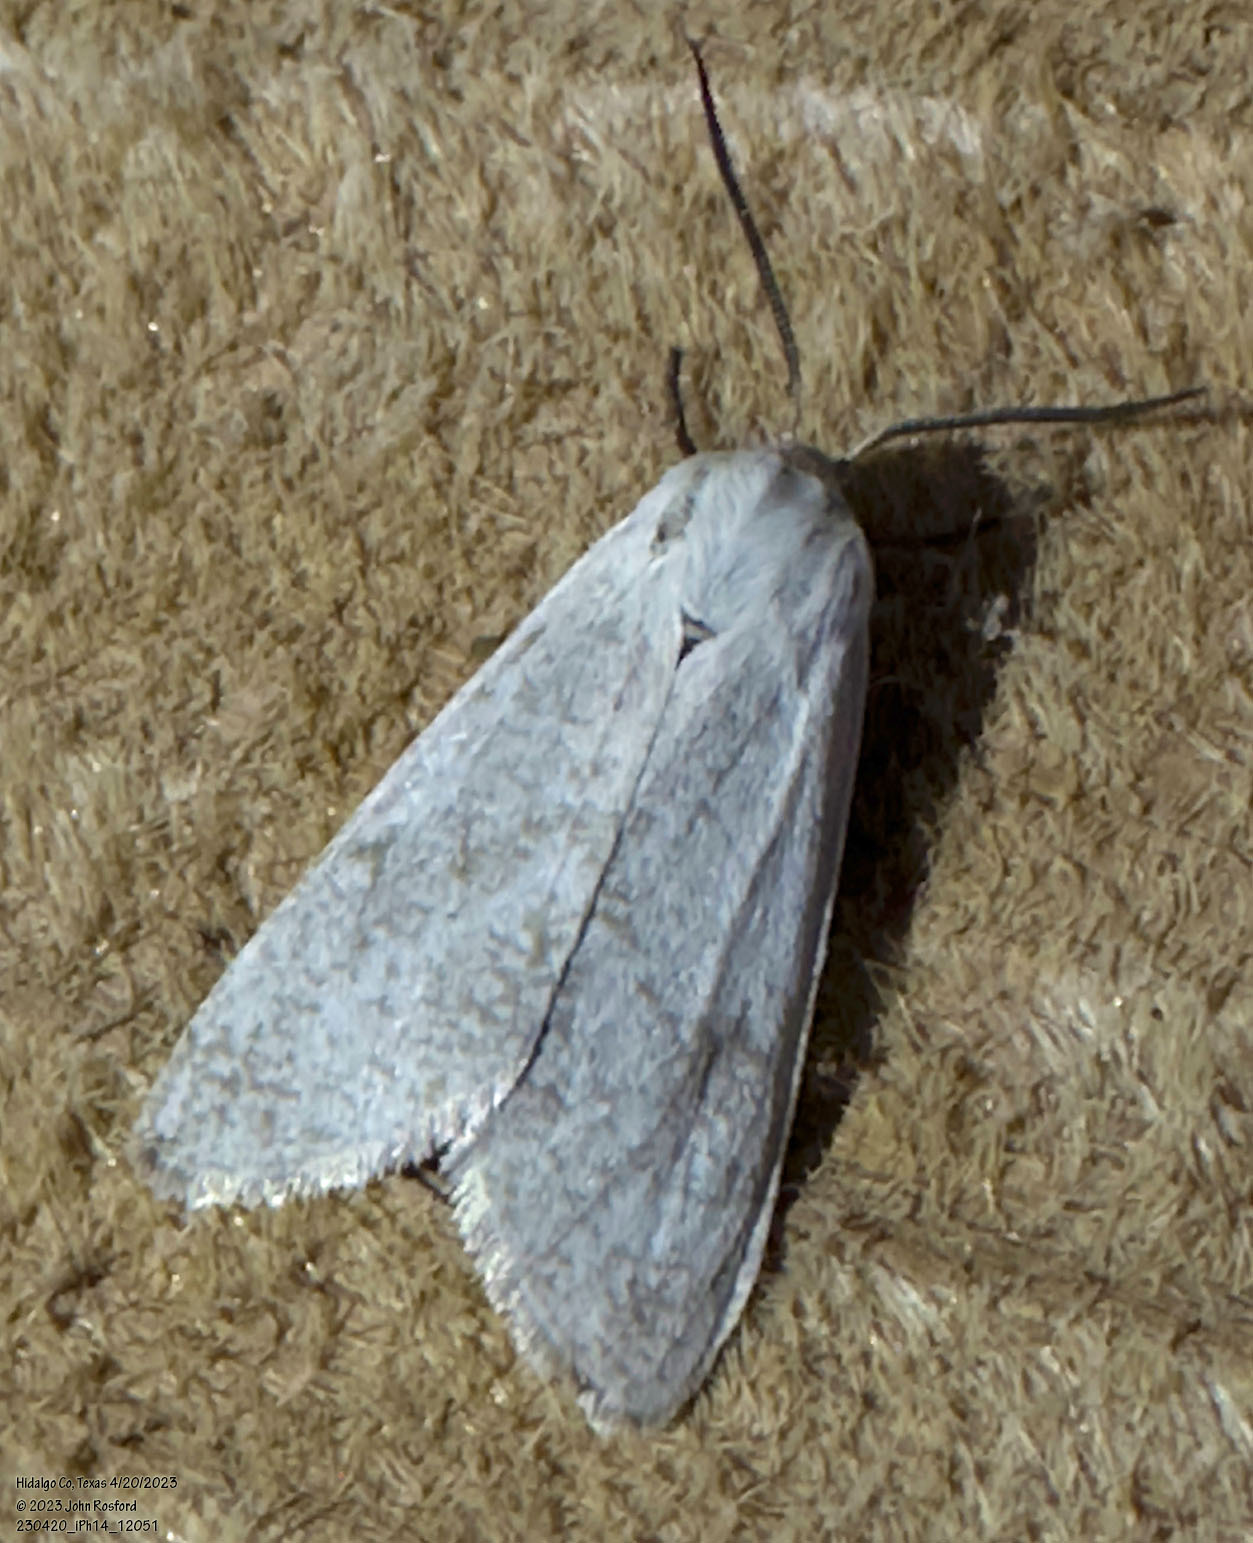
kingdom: Animalia
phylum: Arthropoda
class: Insecta
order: Lepidoptera
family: Erebidae
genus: Euchaetes
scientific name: Euchaetes bolteri
